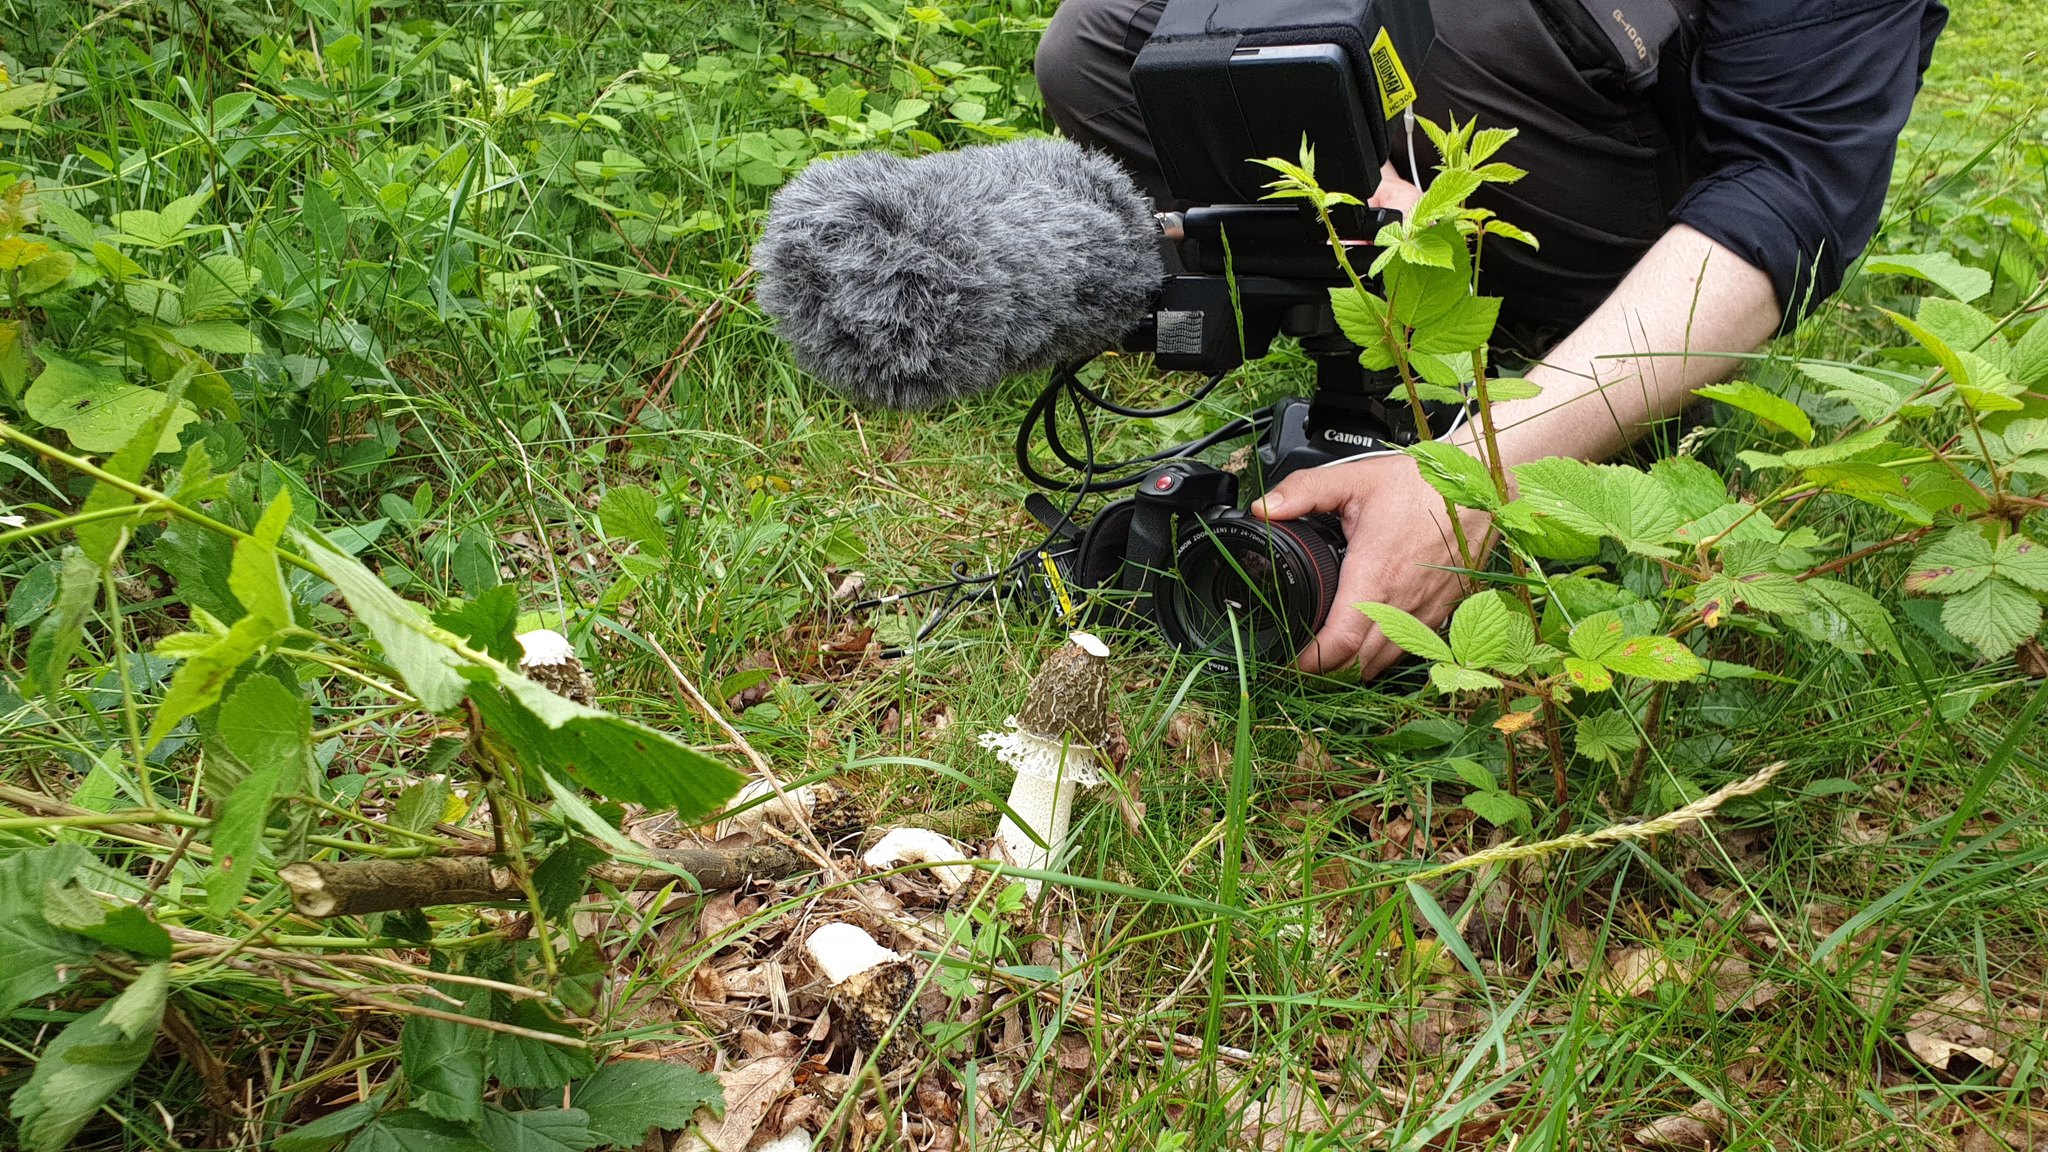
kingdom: Fungi
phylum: Basidiomycota
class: Agaricomycetes
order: Phallales
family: Phallaceae
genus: Phallus
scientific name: Phallus impudicus
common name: Common stinkhorn
